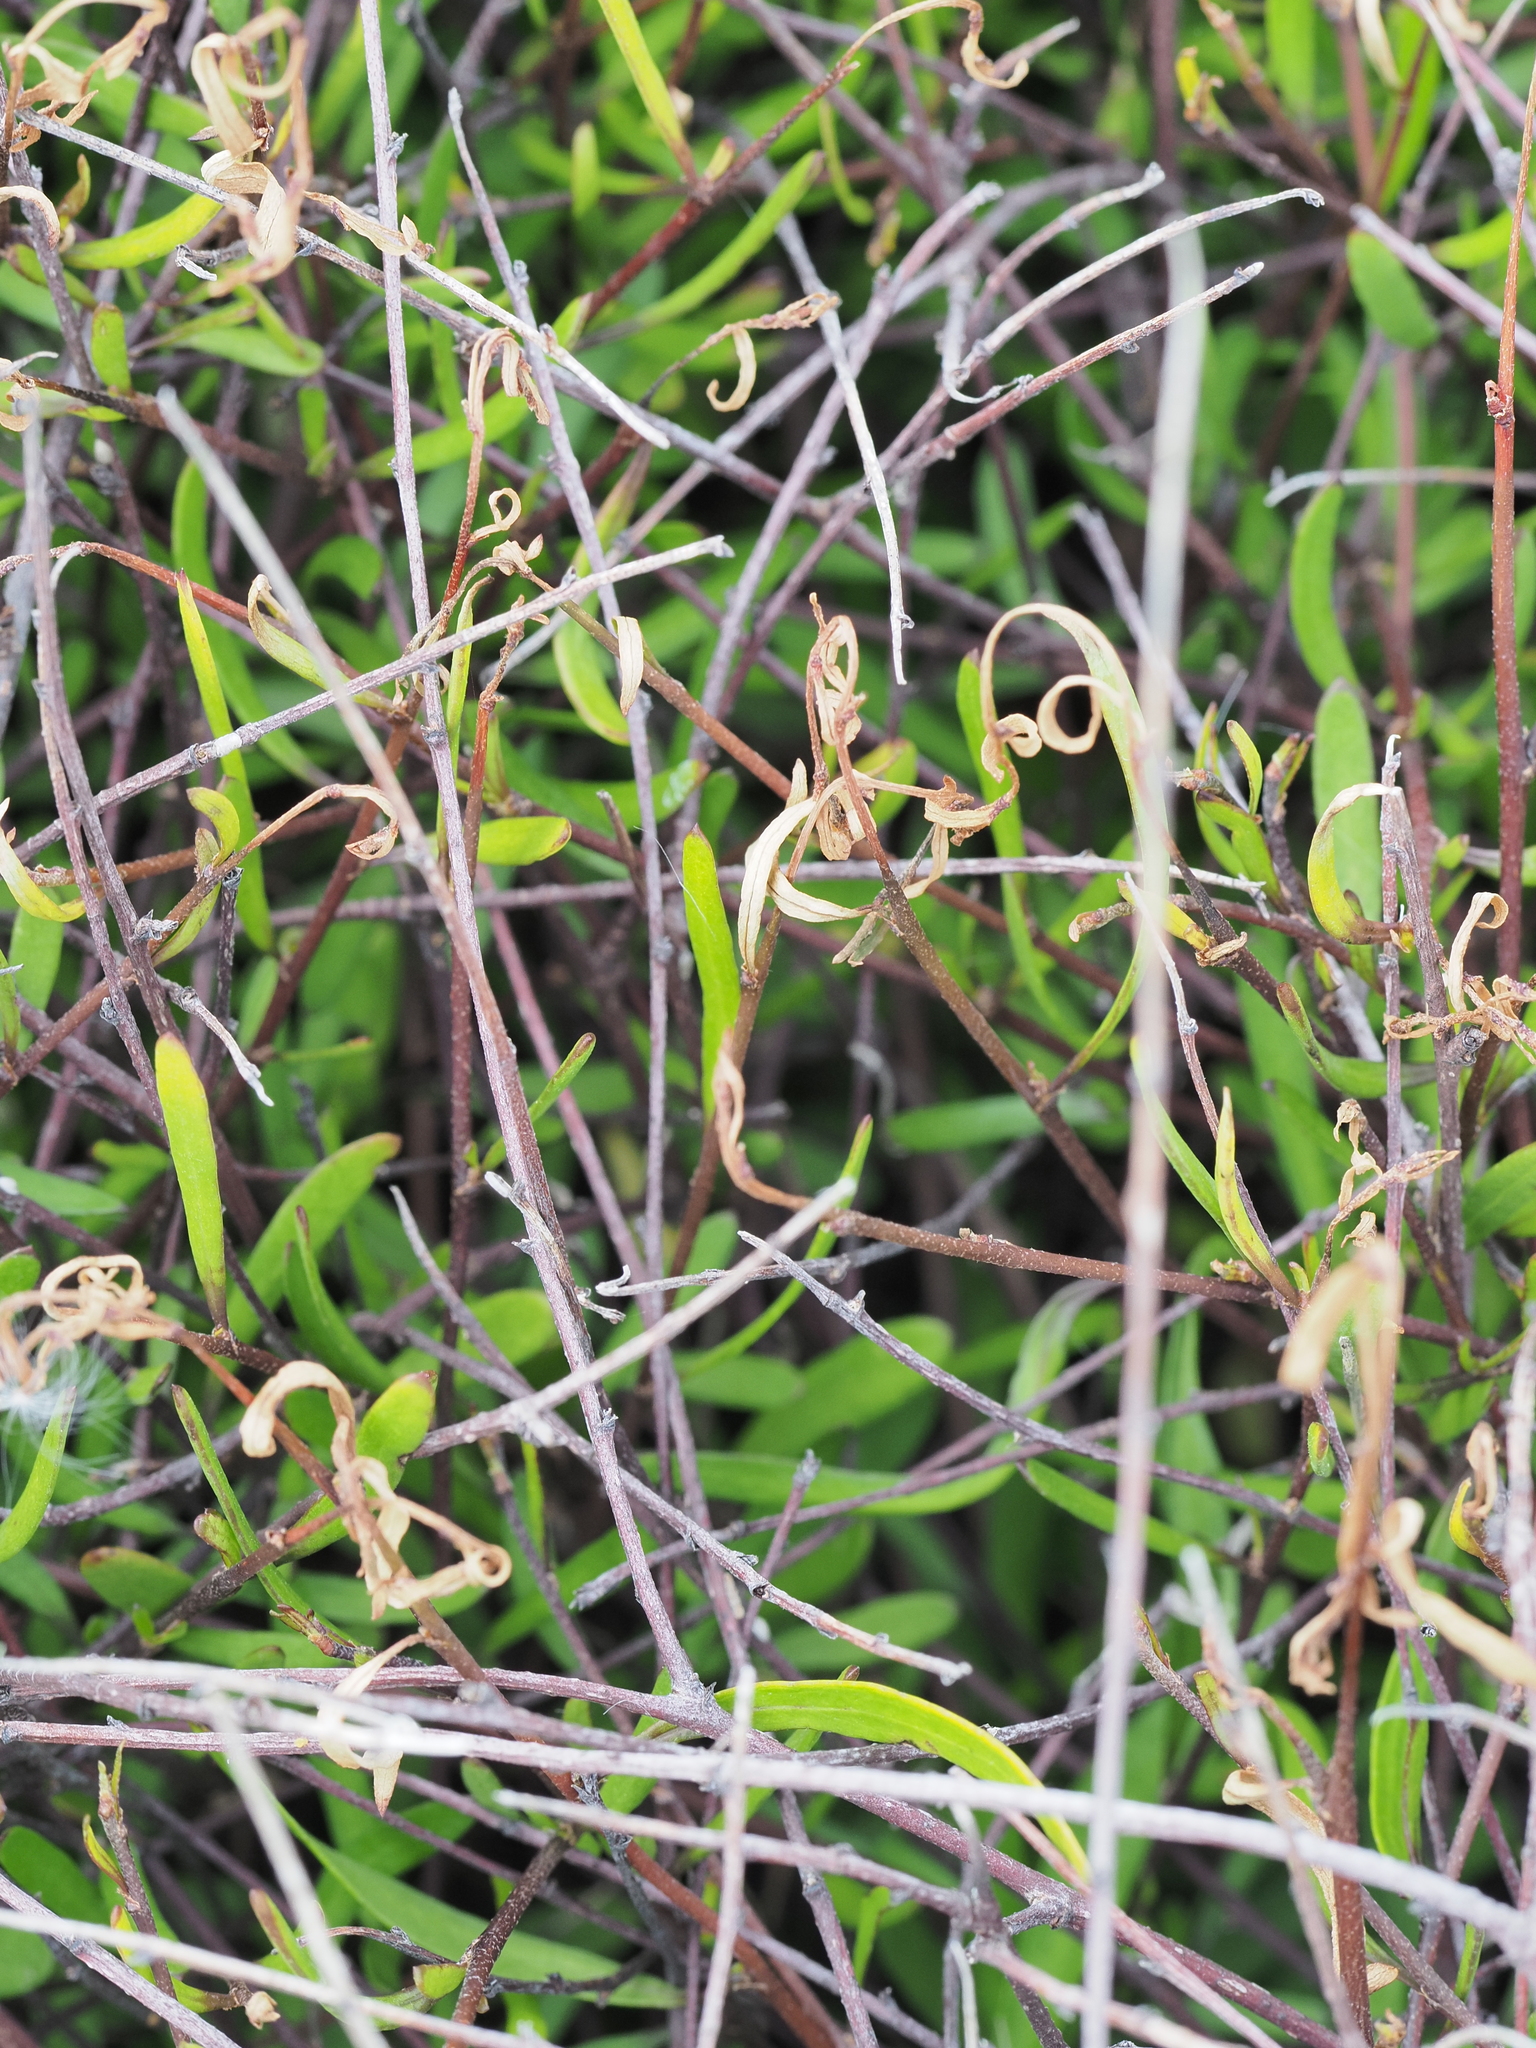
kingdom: Plantae
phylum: Tracheophyta
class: Magnoliopsida
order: Malvales
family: Malvaceae
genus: Plagianthus
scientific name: Plagianthus divaricatus
